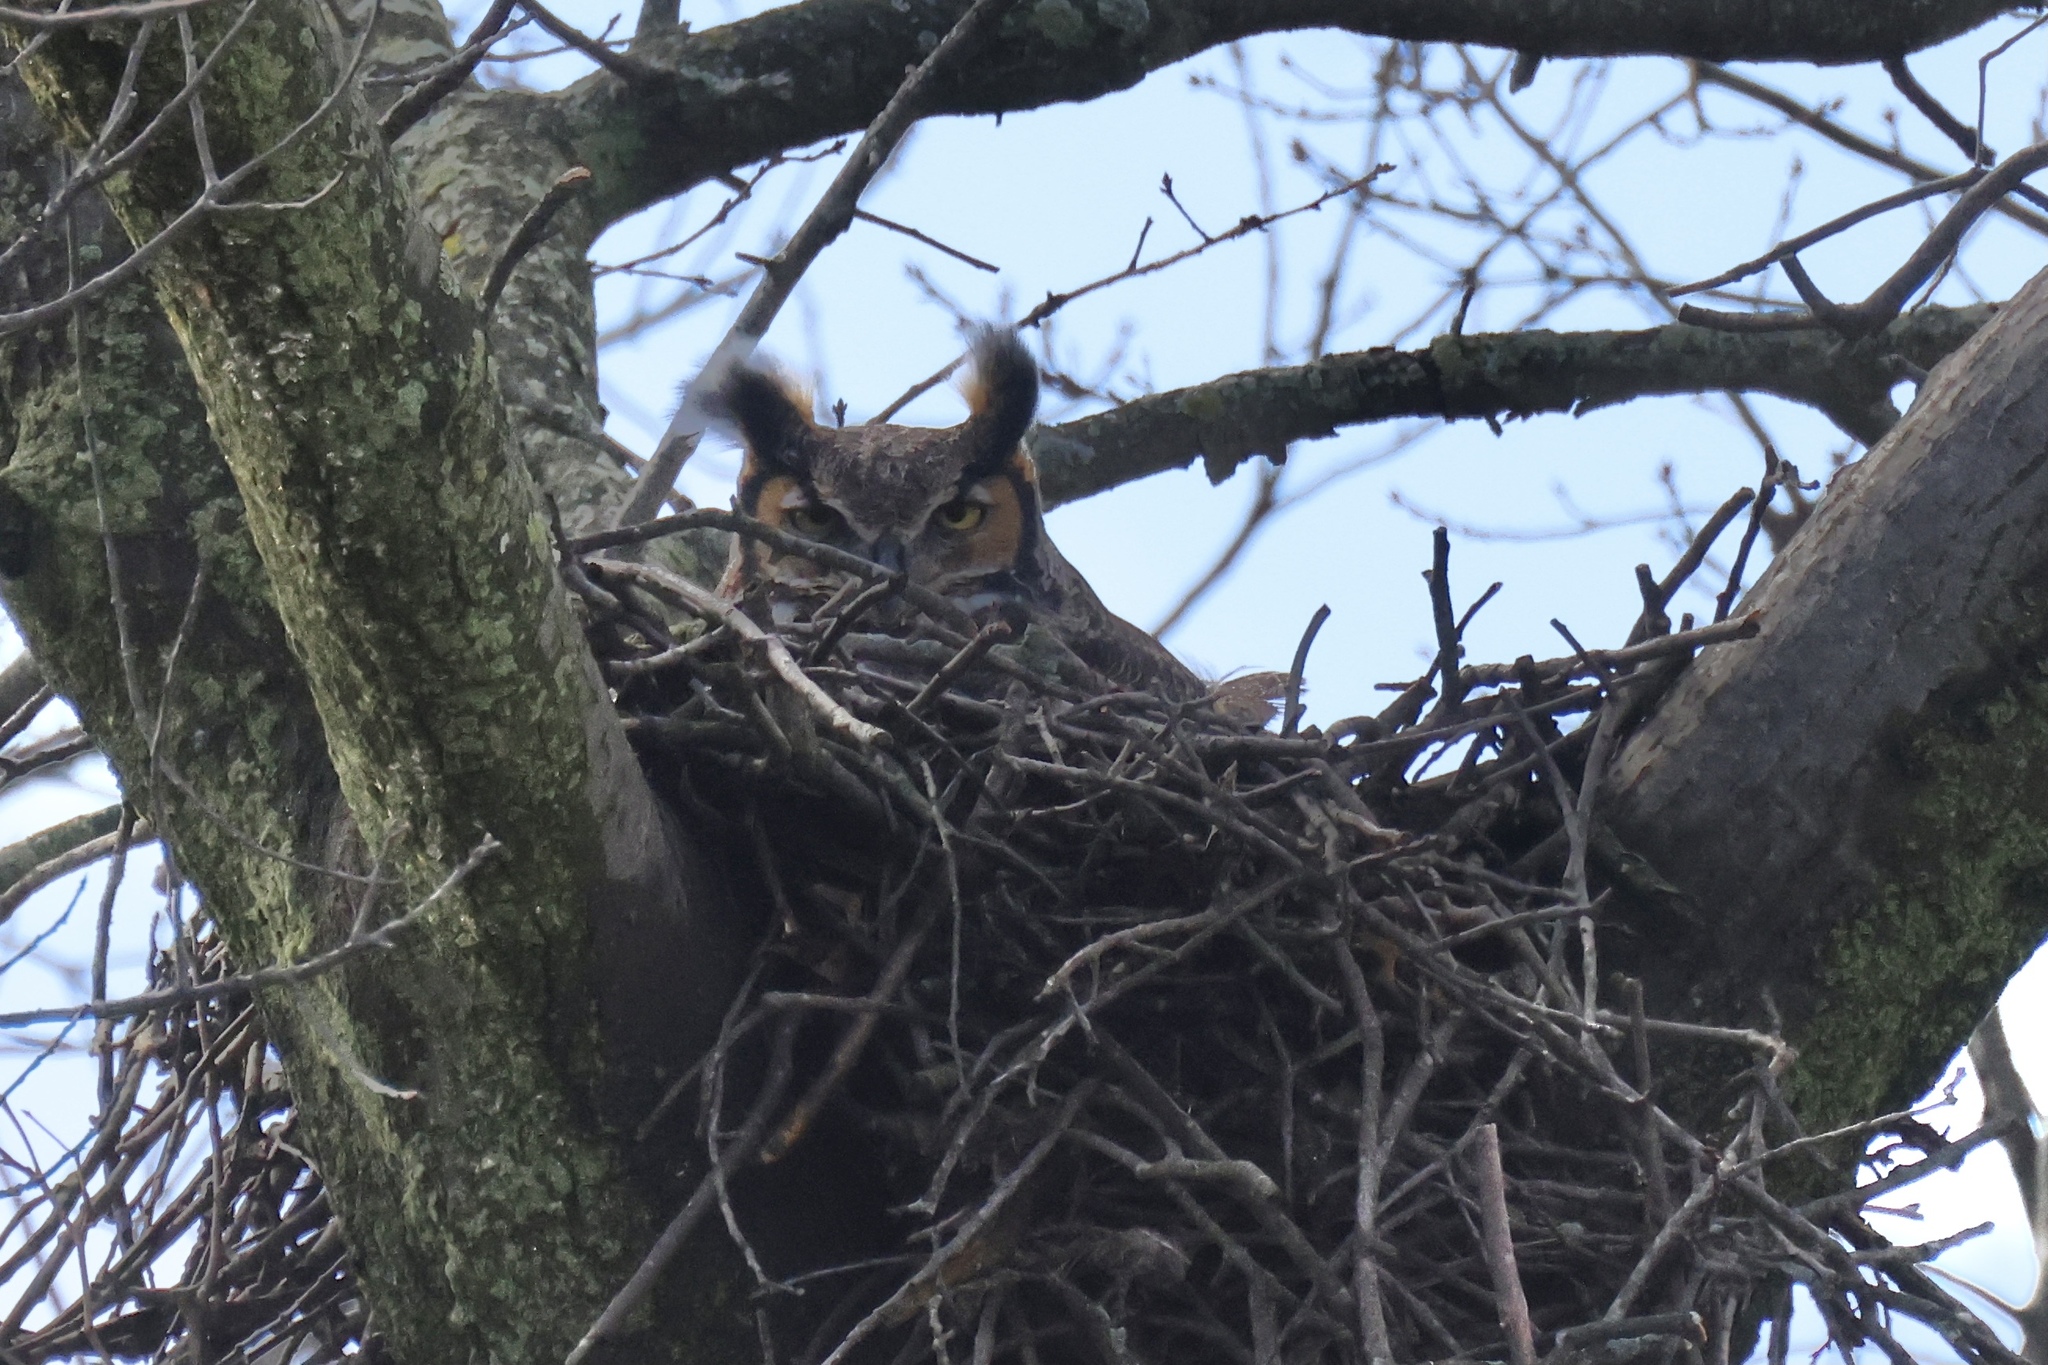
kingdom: Animalia
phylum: Chordata
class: Aves
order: Strigiformes
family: Strigidae
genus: Bubo
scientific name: Bubo virginianus
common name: Great horned owl
